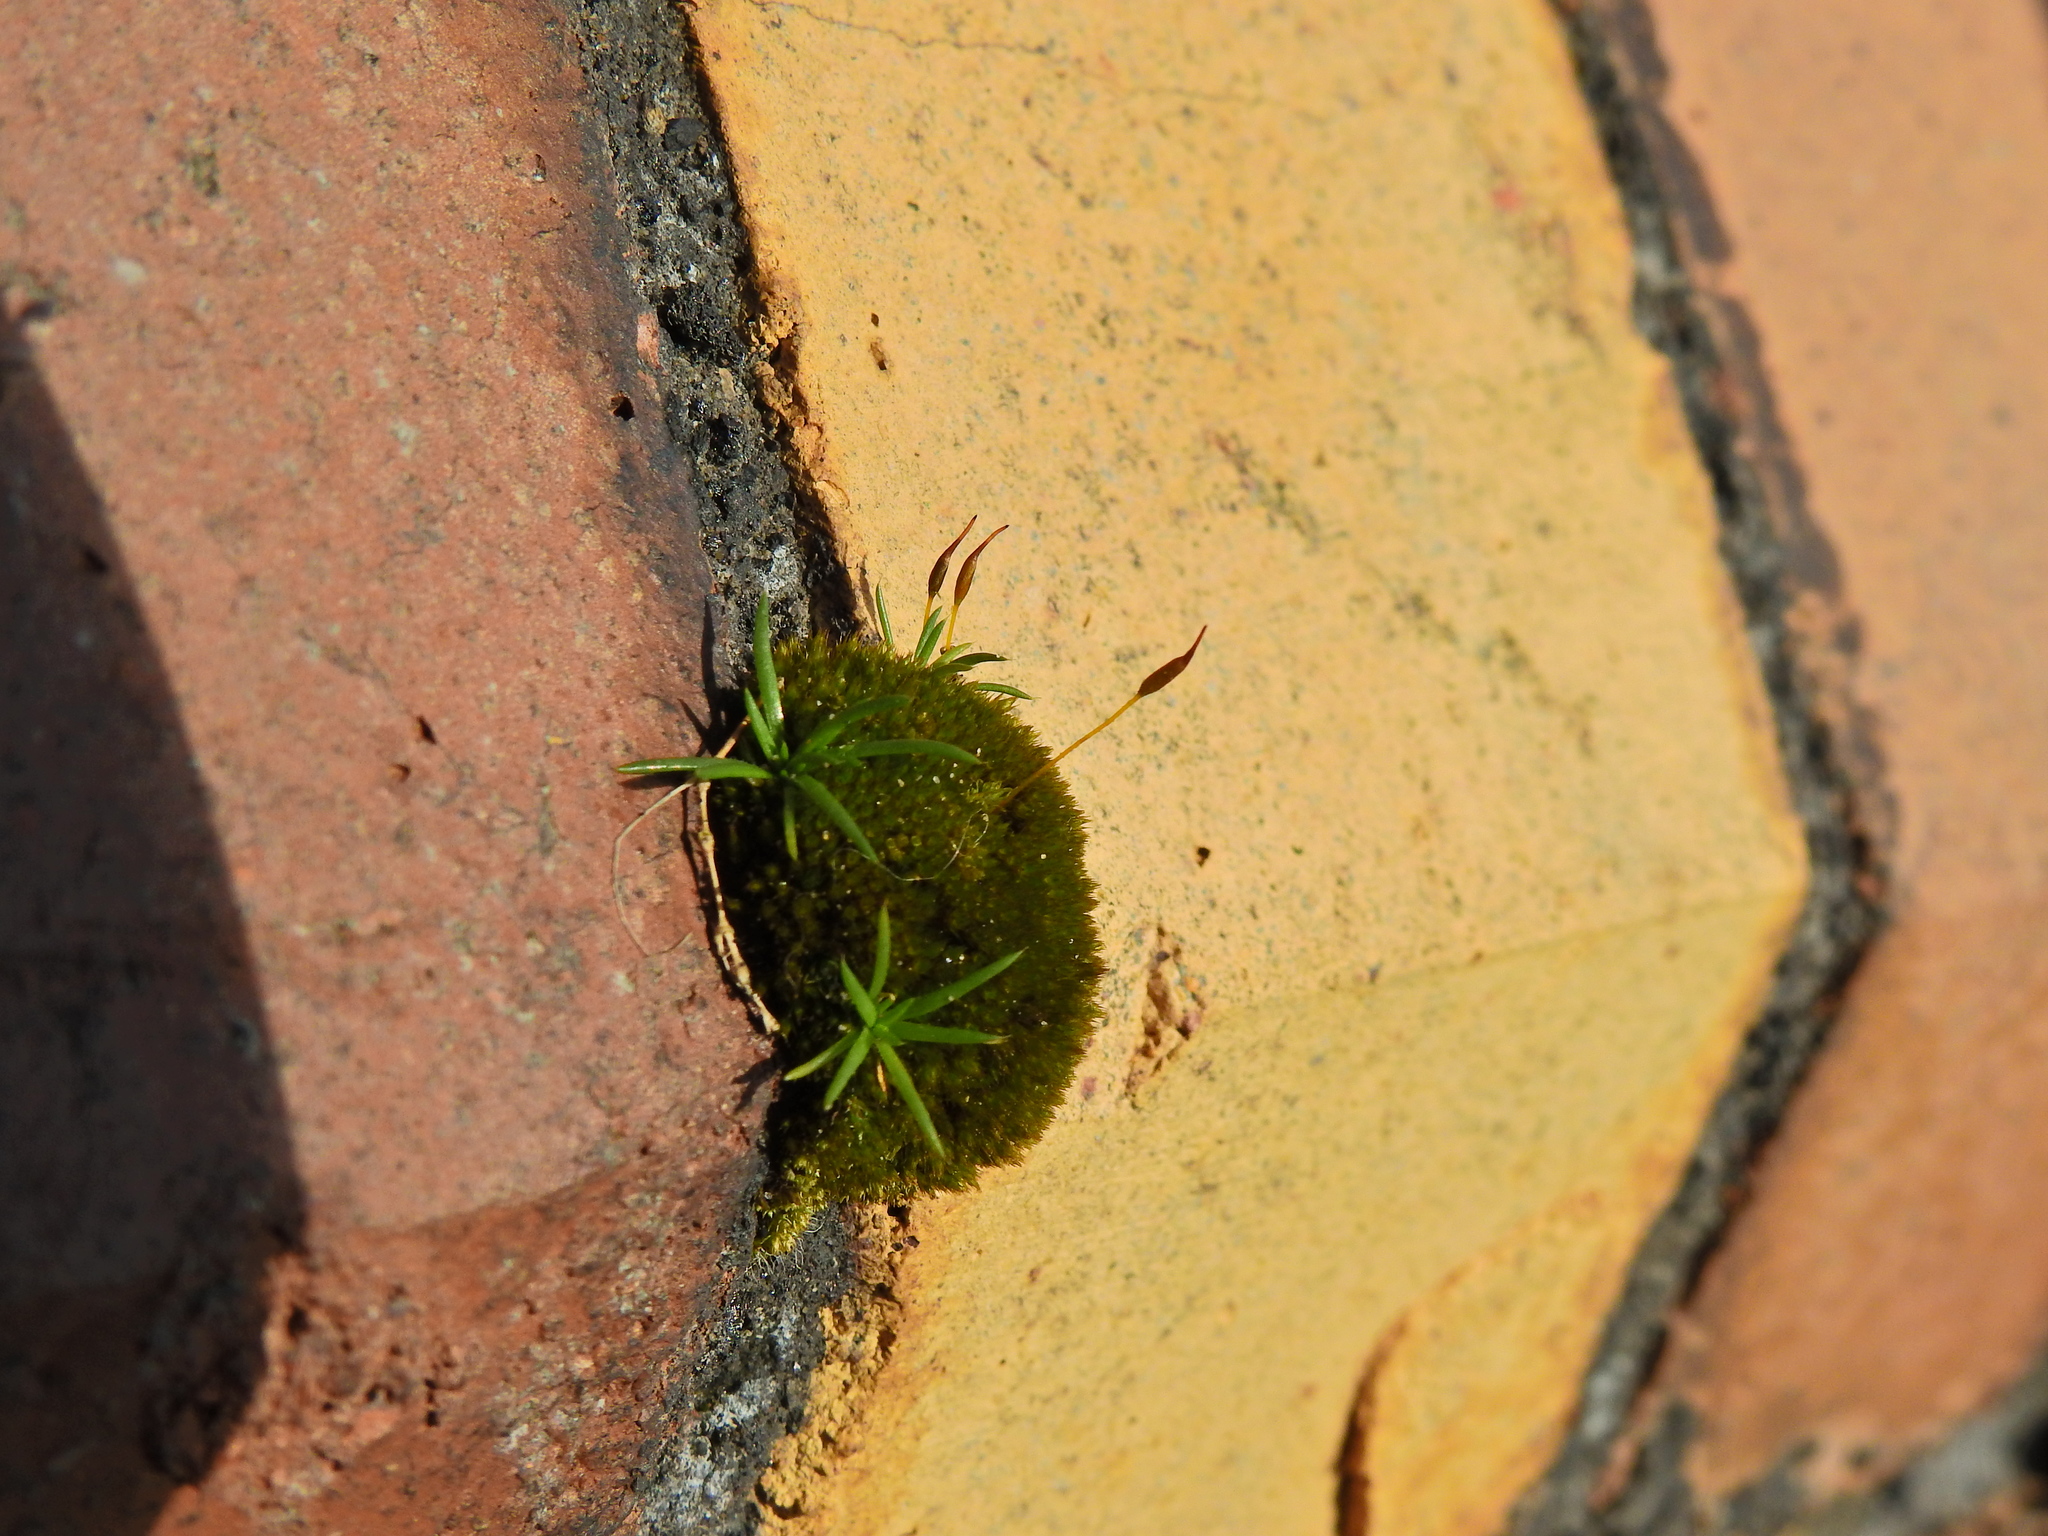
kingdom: Plantae
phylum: Bryophyta
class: Bryopsida
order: Pottiales
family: Pottiaceae
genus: Tortula
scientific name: Tortula muralis
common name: Wall screw-moss
